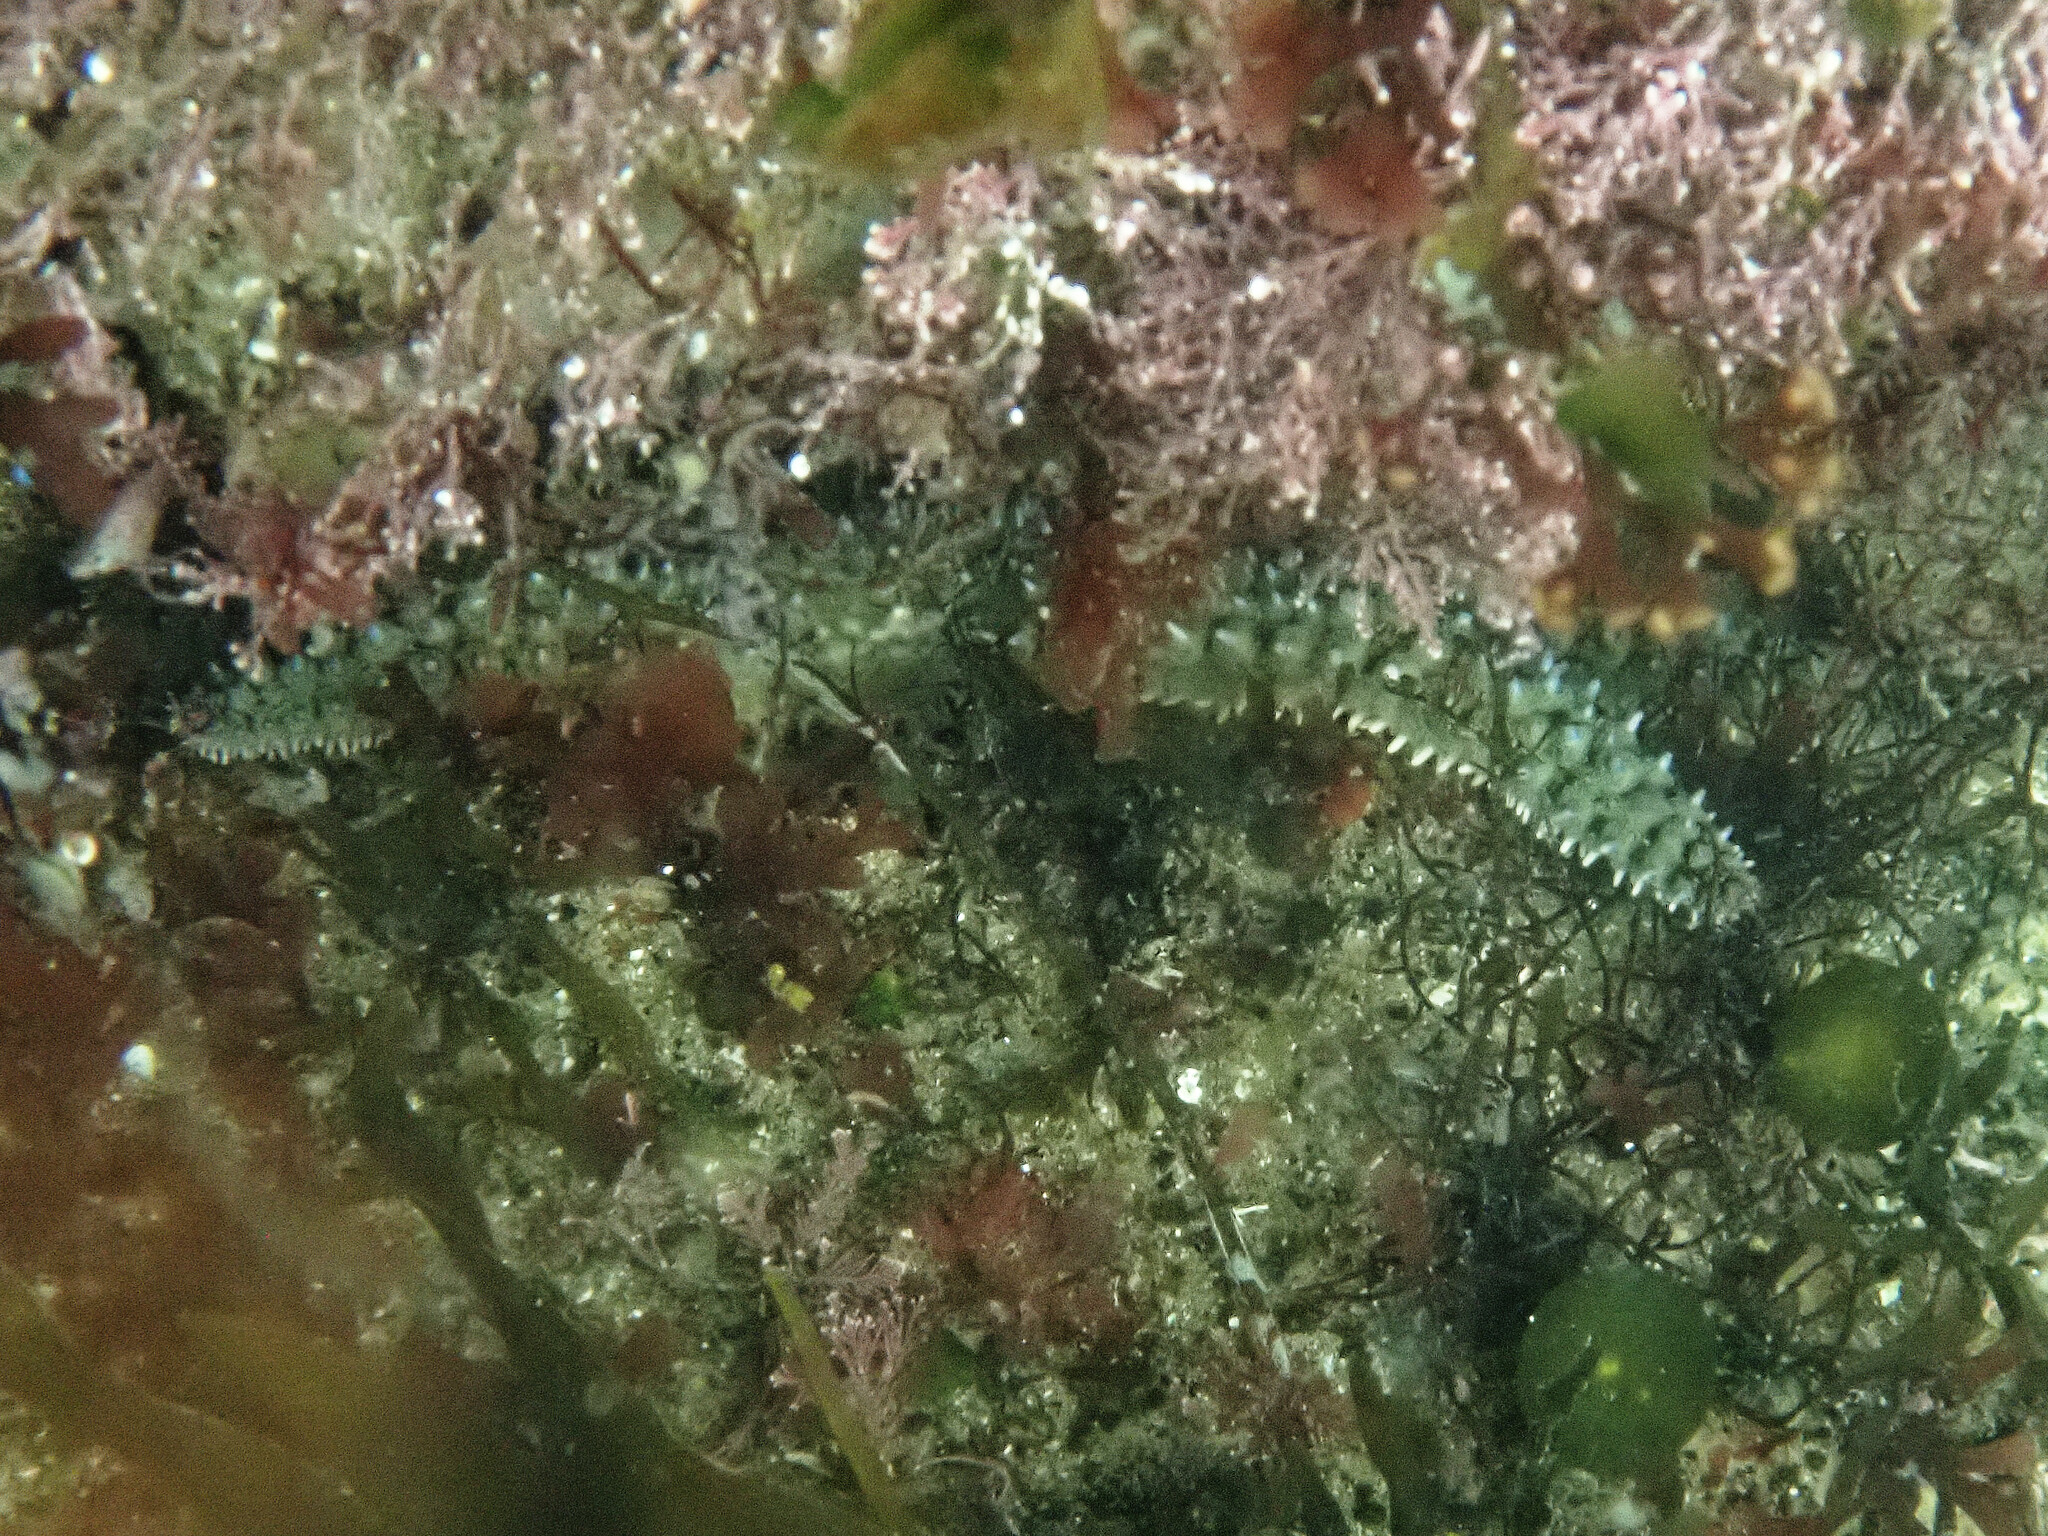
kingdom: Animalia
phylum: Echinodermata
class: Asteroidea
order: Forcipulatida
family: Asteriidae
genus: Marthasterias
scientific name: Marthasterias glacialis
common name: Spiny starfish
